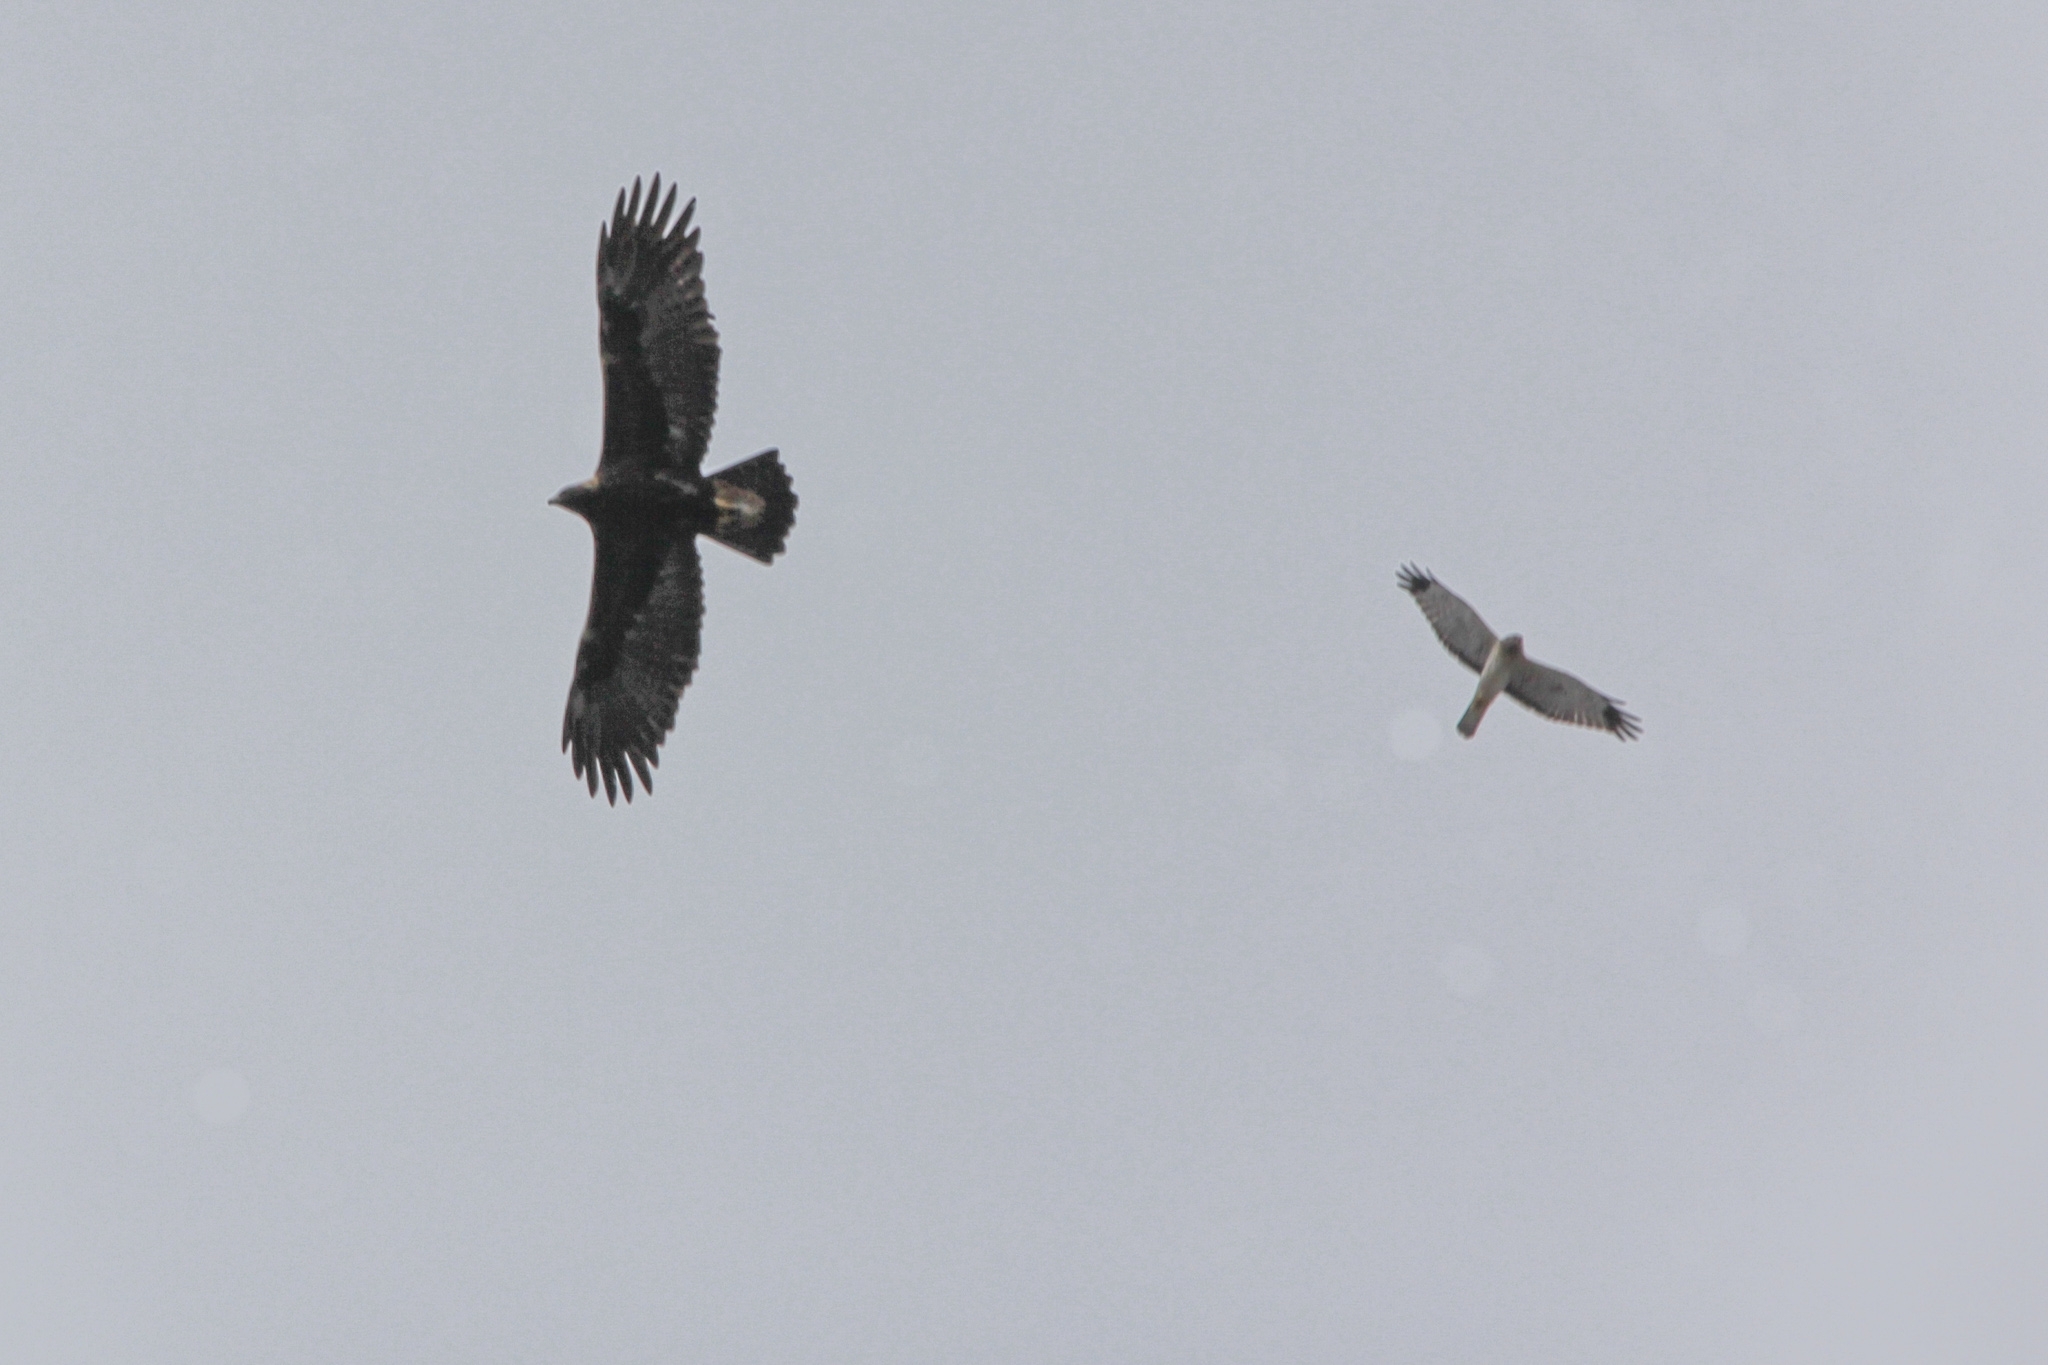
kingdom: Animalia
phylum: Chordata
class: Aves
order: Accipitriformes
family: Accipitridae
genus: Circus
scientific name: Circus cyaneus
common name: Hen harrier
